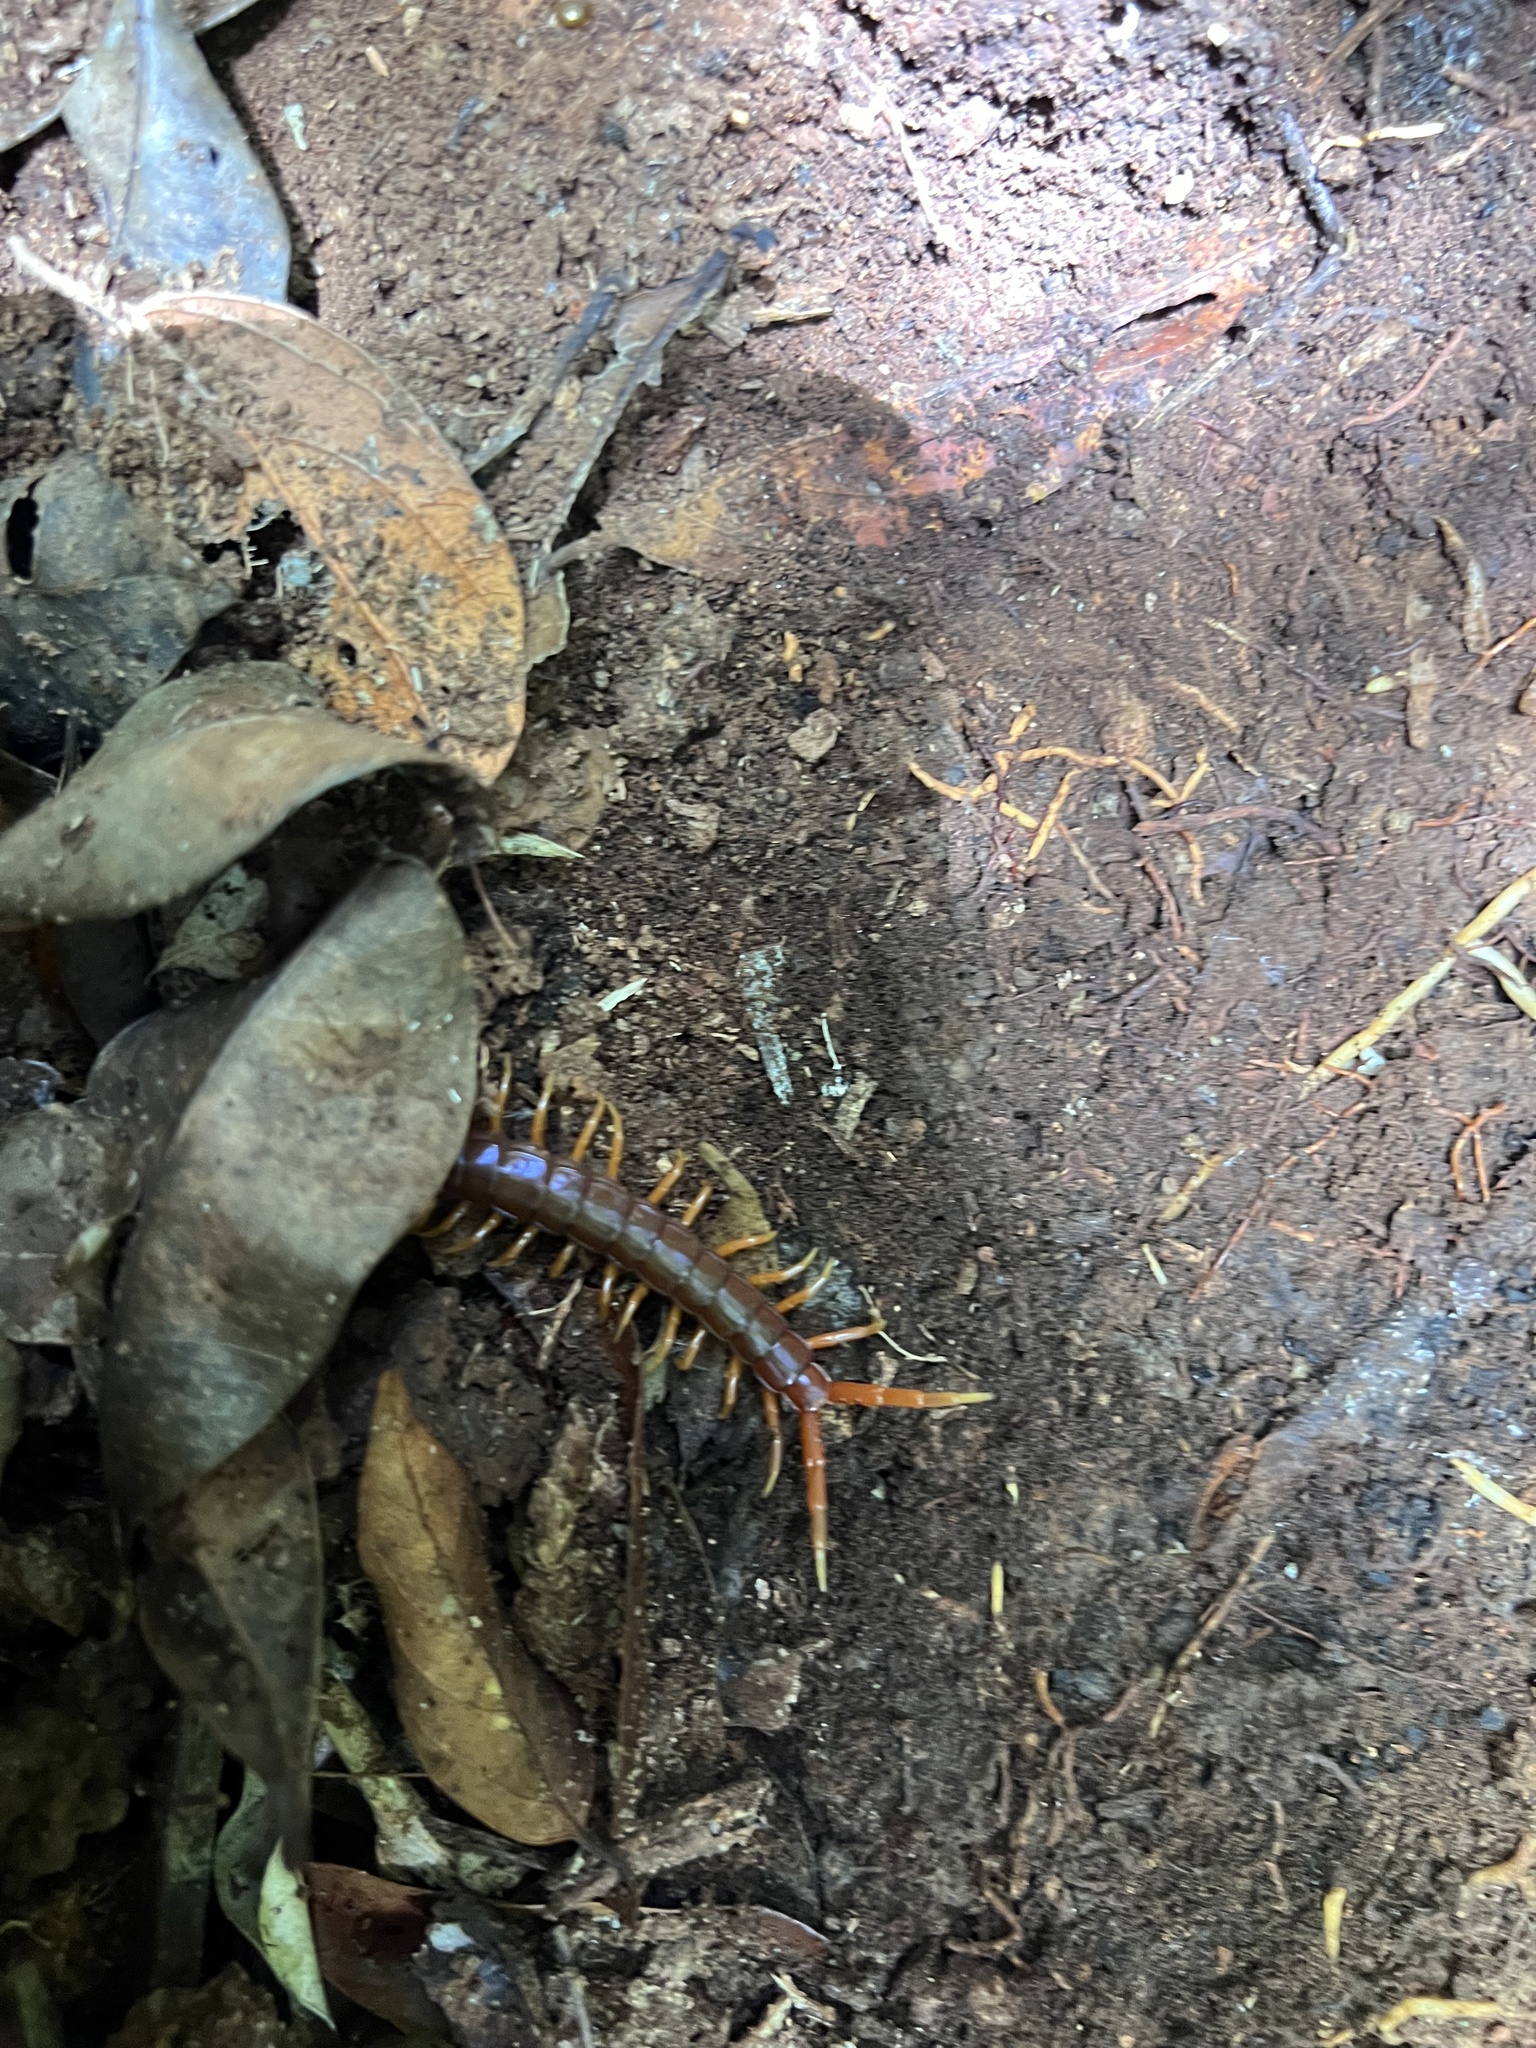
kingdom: Animalia
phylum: Arthropoda
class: Chilopoda
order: Scolopendromorpha
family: Scolopendridae
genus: Ethmostigmus
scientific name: Ethmostigmus rubripes
